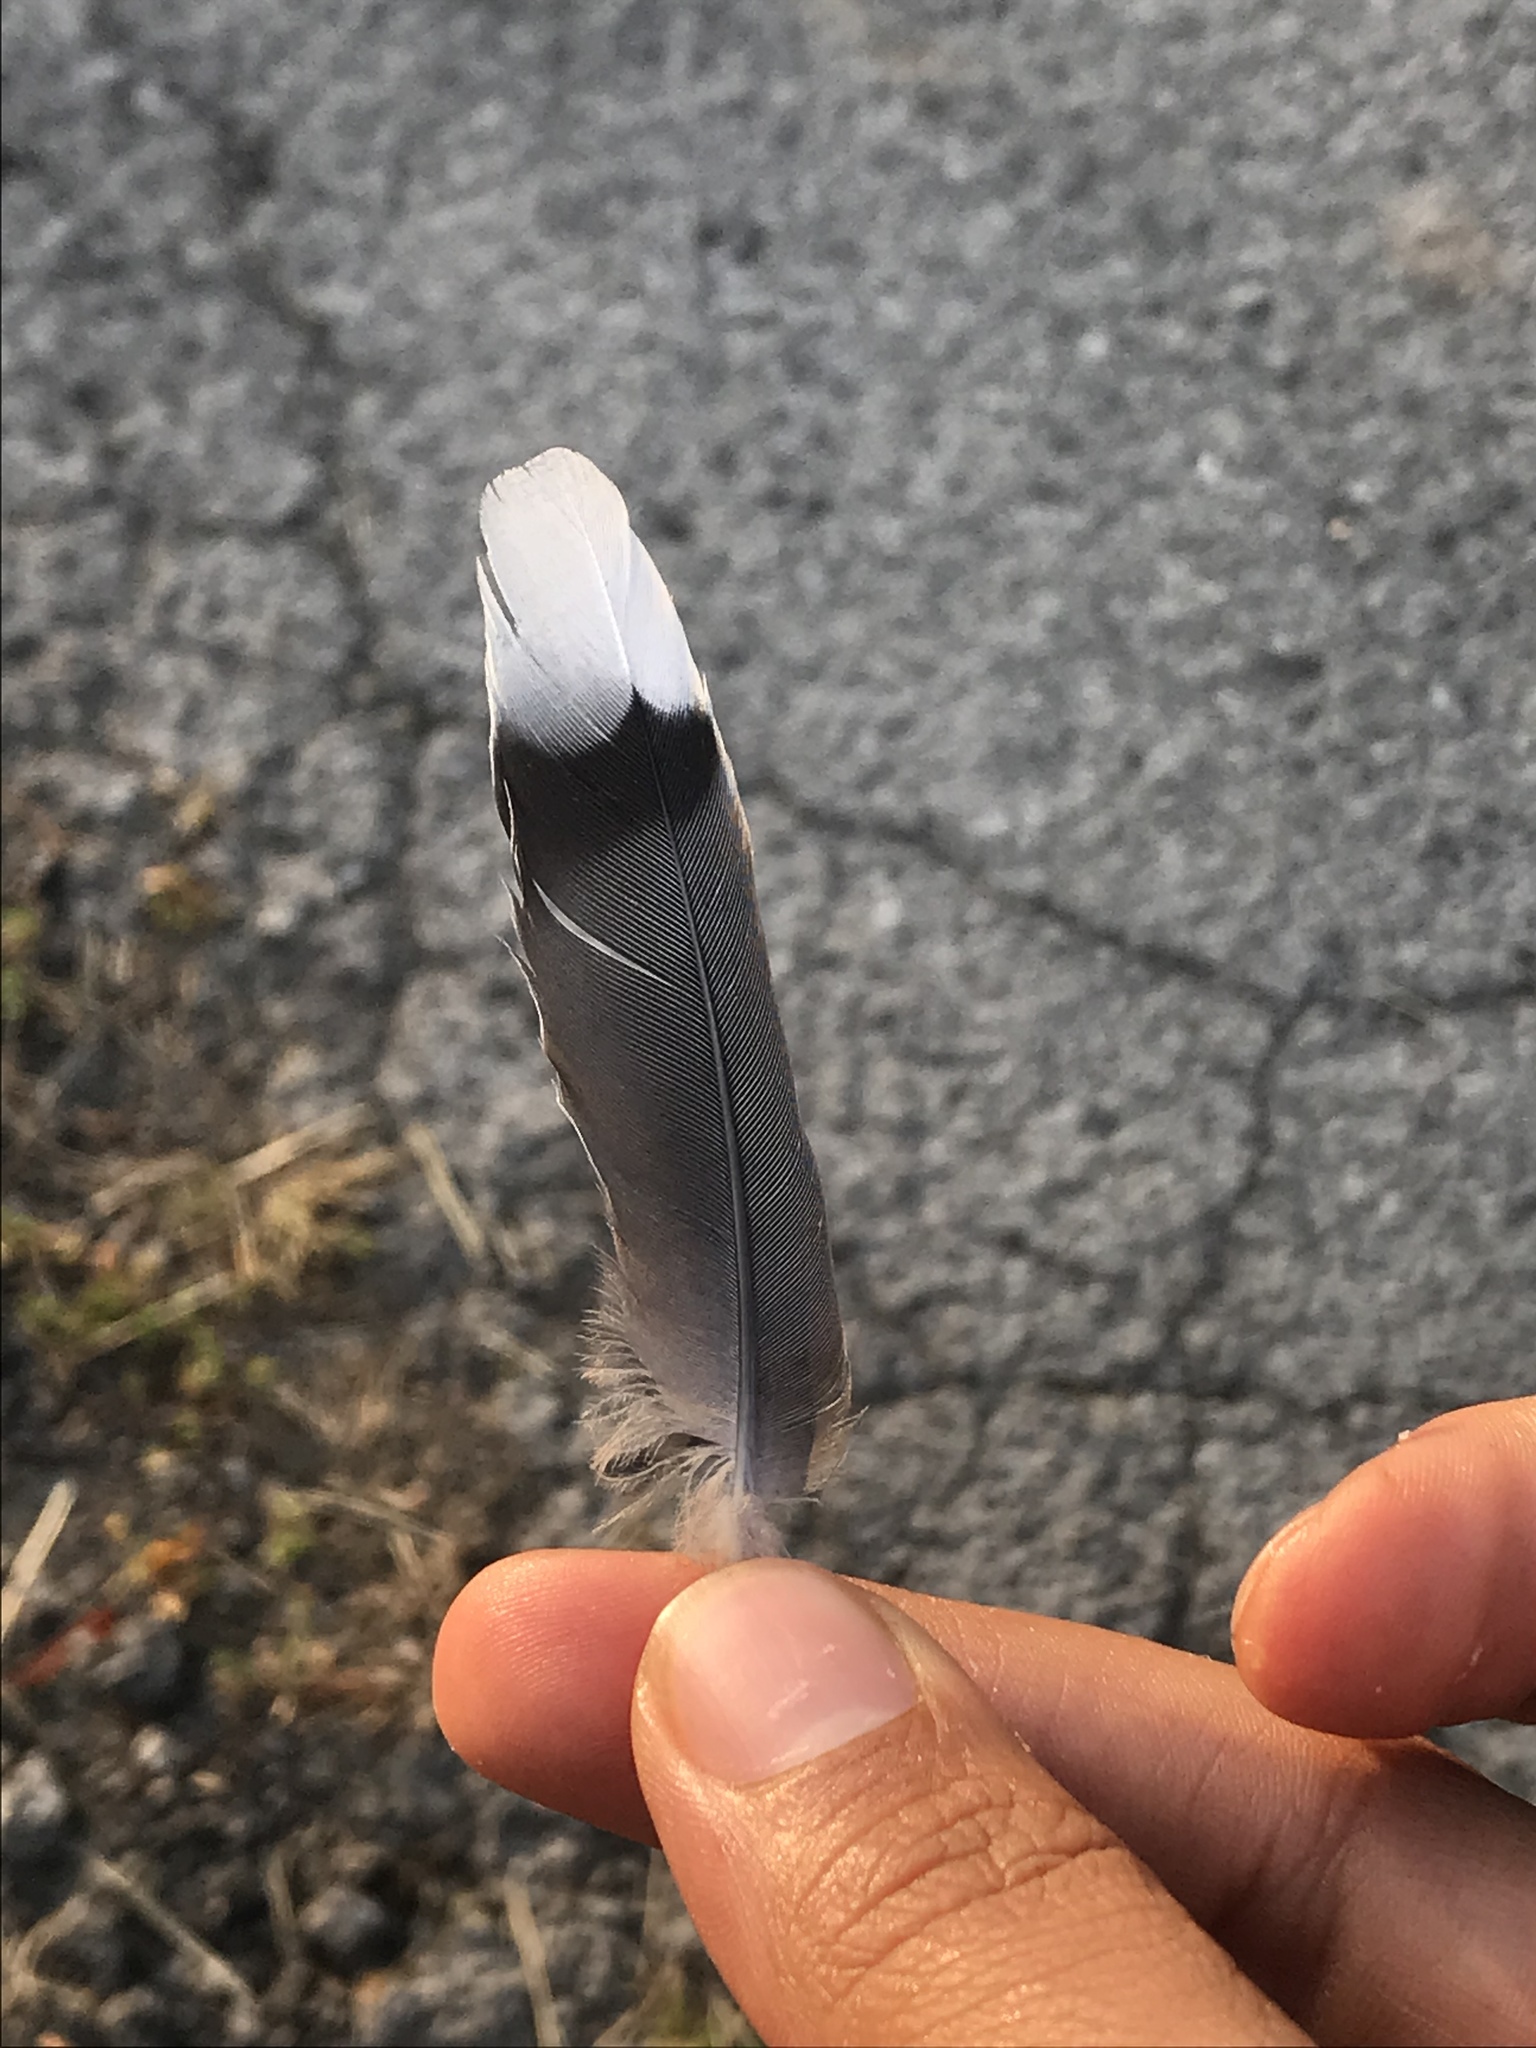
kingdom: Animalia
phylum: Chordata
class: Aves
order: Columbiformes
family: Columbidae
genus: Zenaida
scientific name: Zenaida macroura
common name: Mourning dove
